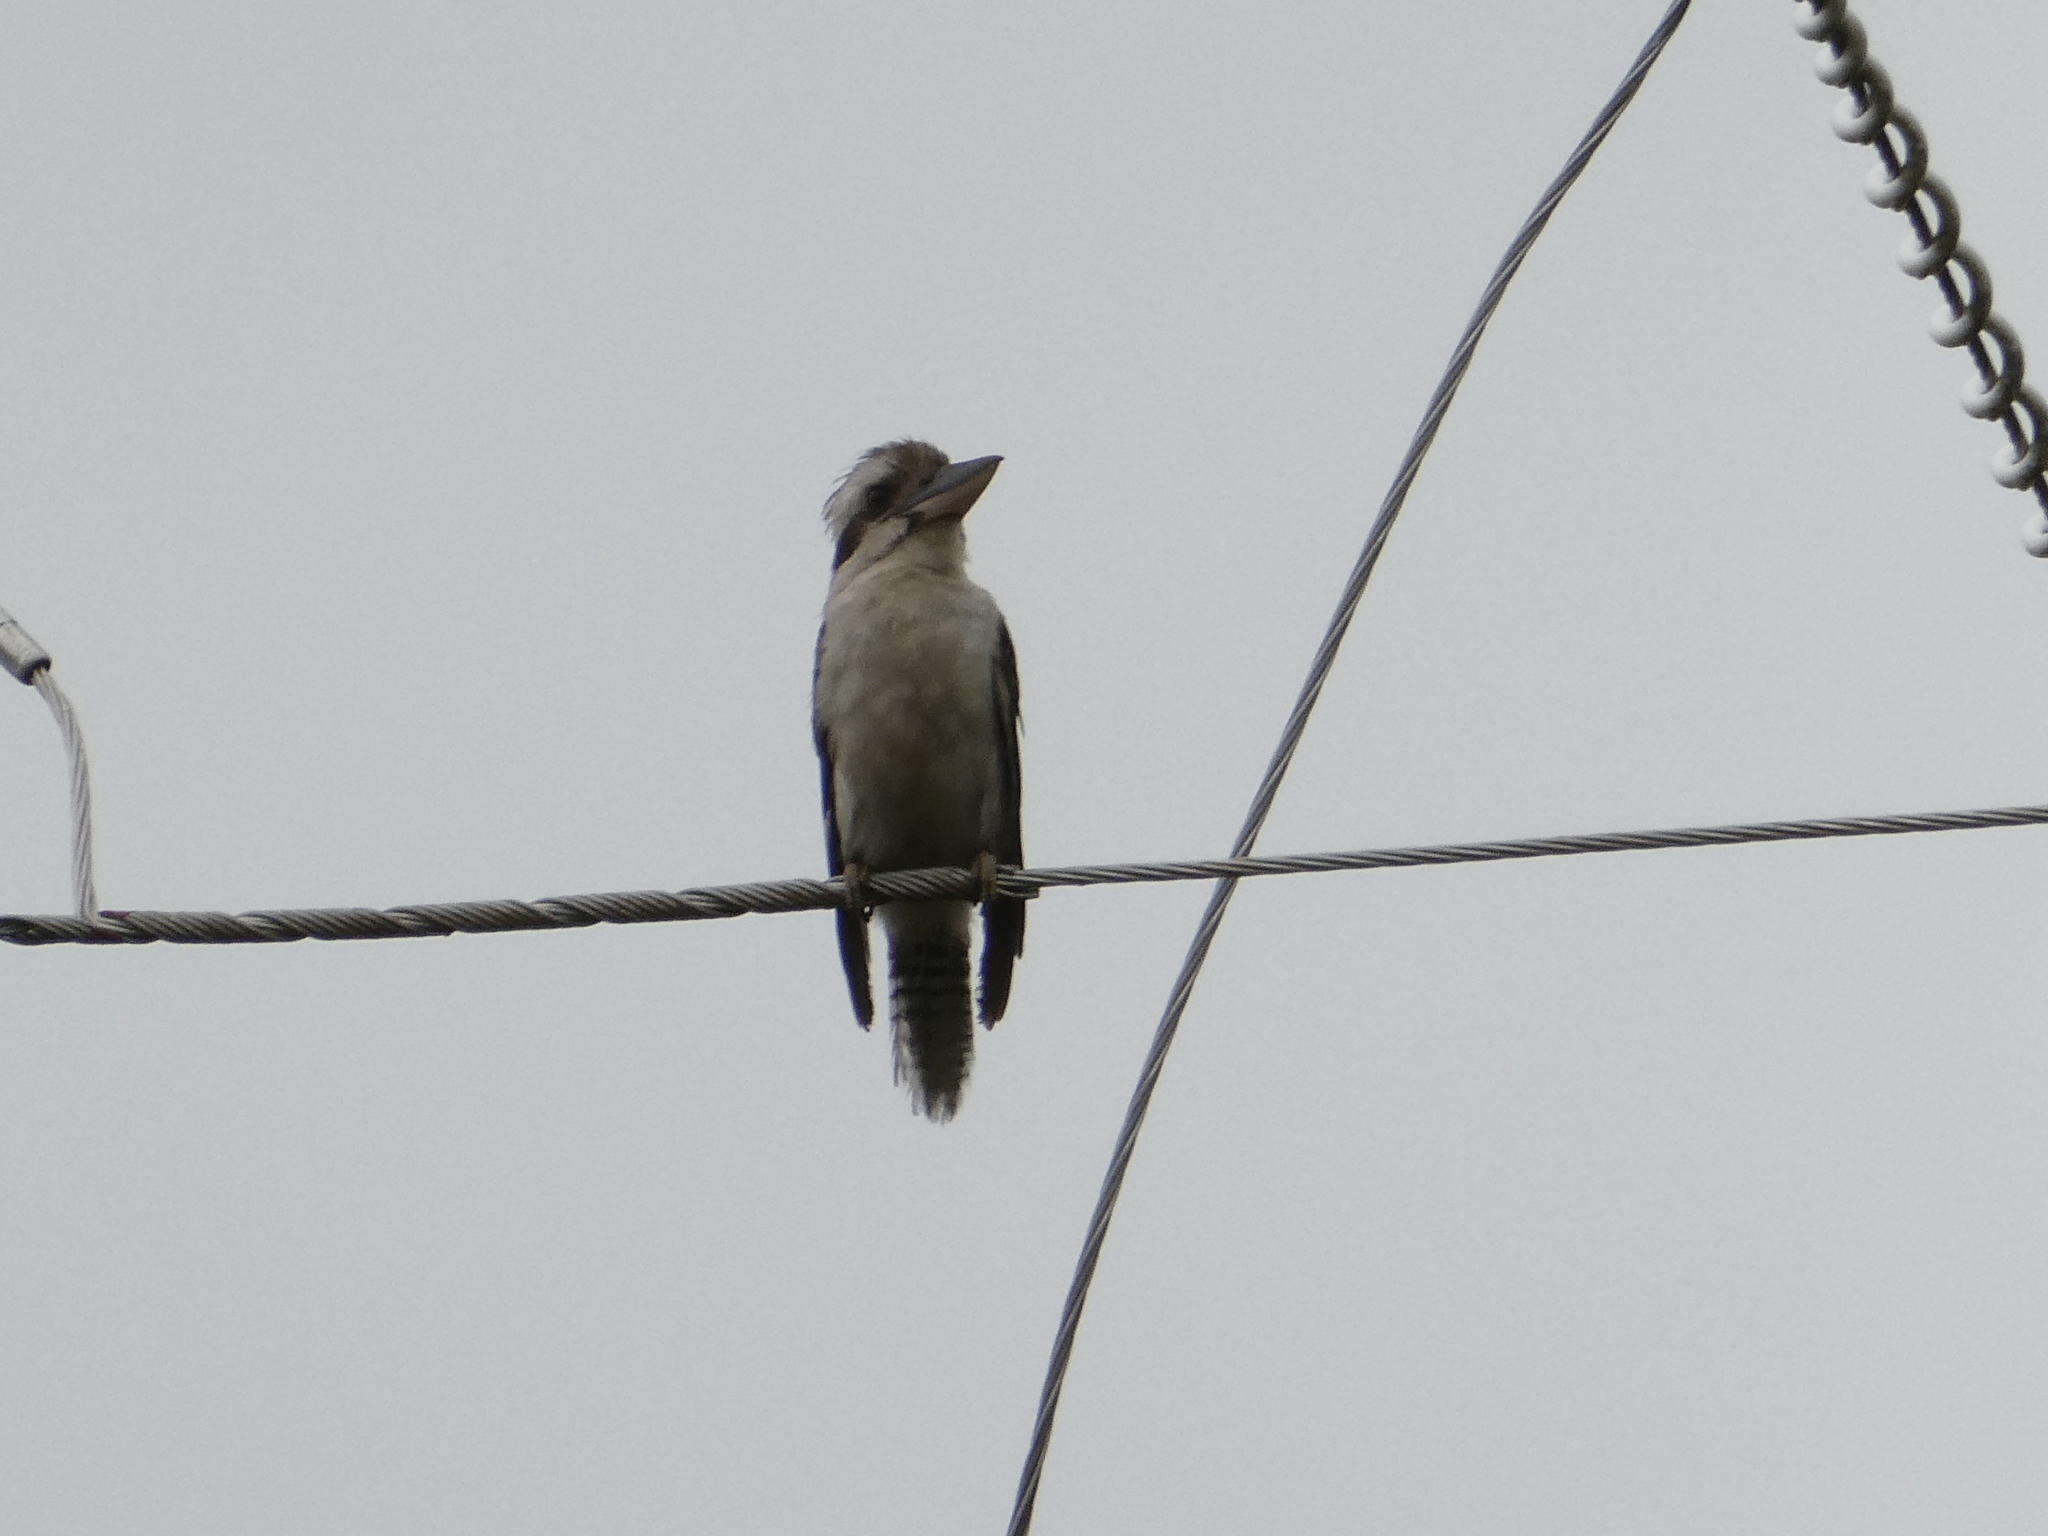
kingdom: Animalia
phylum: Chordata
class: Aves
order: Coraciiformes
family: Alcedinidae
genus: Dacelo
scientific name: Dacelo novaeguineae
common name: Laughing kookaburra
